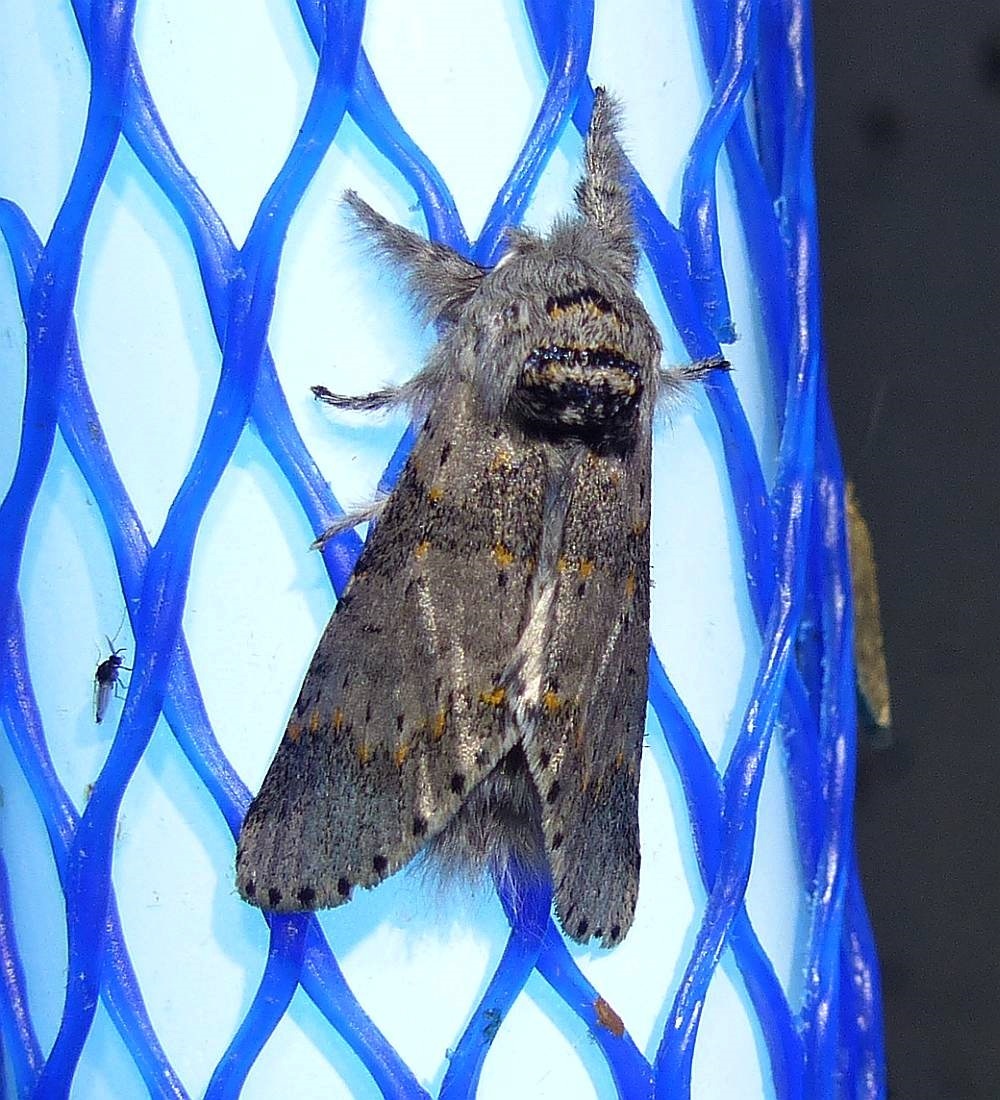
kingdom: Animalia
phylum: Arthropoda
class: Insecta
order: Lepidoptera
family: Notodontidae
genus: Furcula
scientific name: Furcula cinerea
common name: Gray furcula
